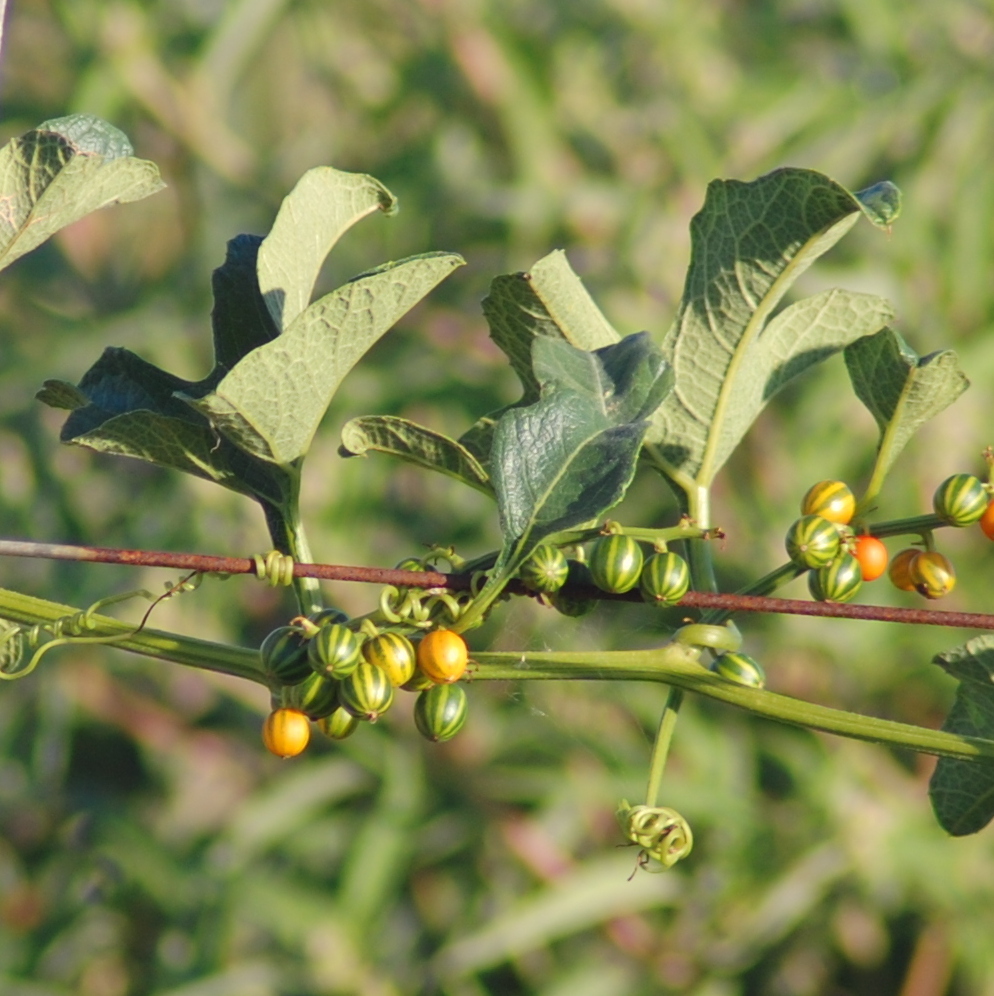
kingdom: Plantae
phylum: Tracheophyta
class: Magnoliopsida
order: Cucurbitales
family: Cucurbitaceae
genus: Cayaponia
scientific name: Cayaponia martiana
